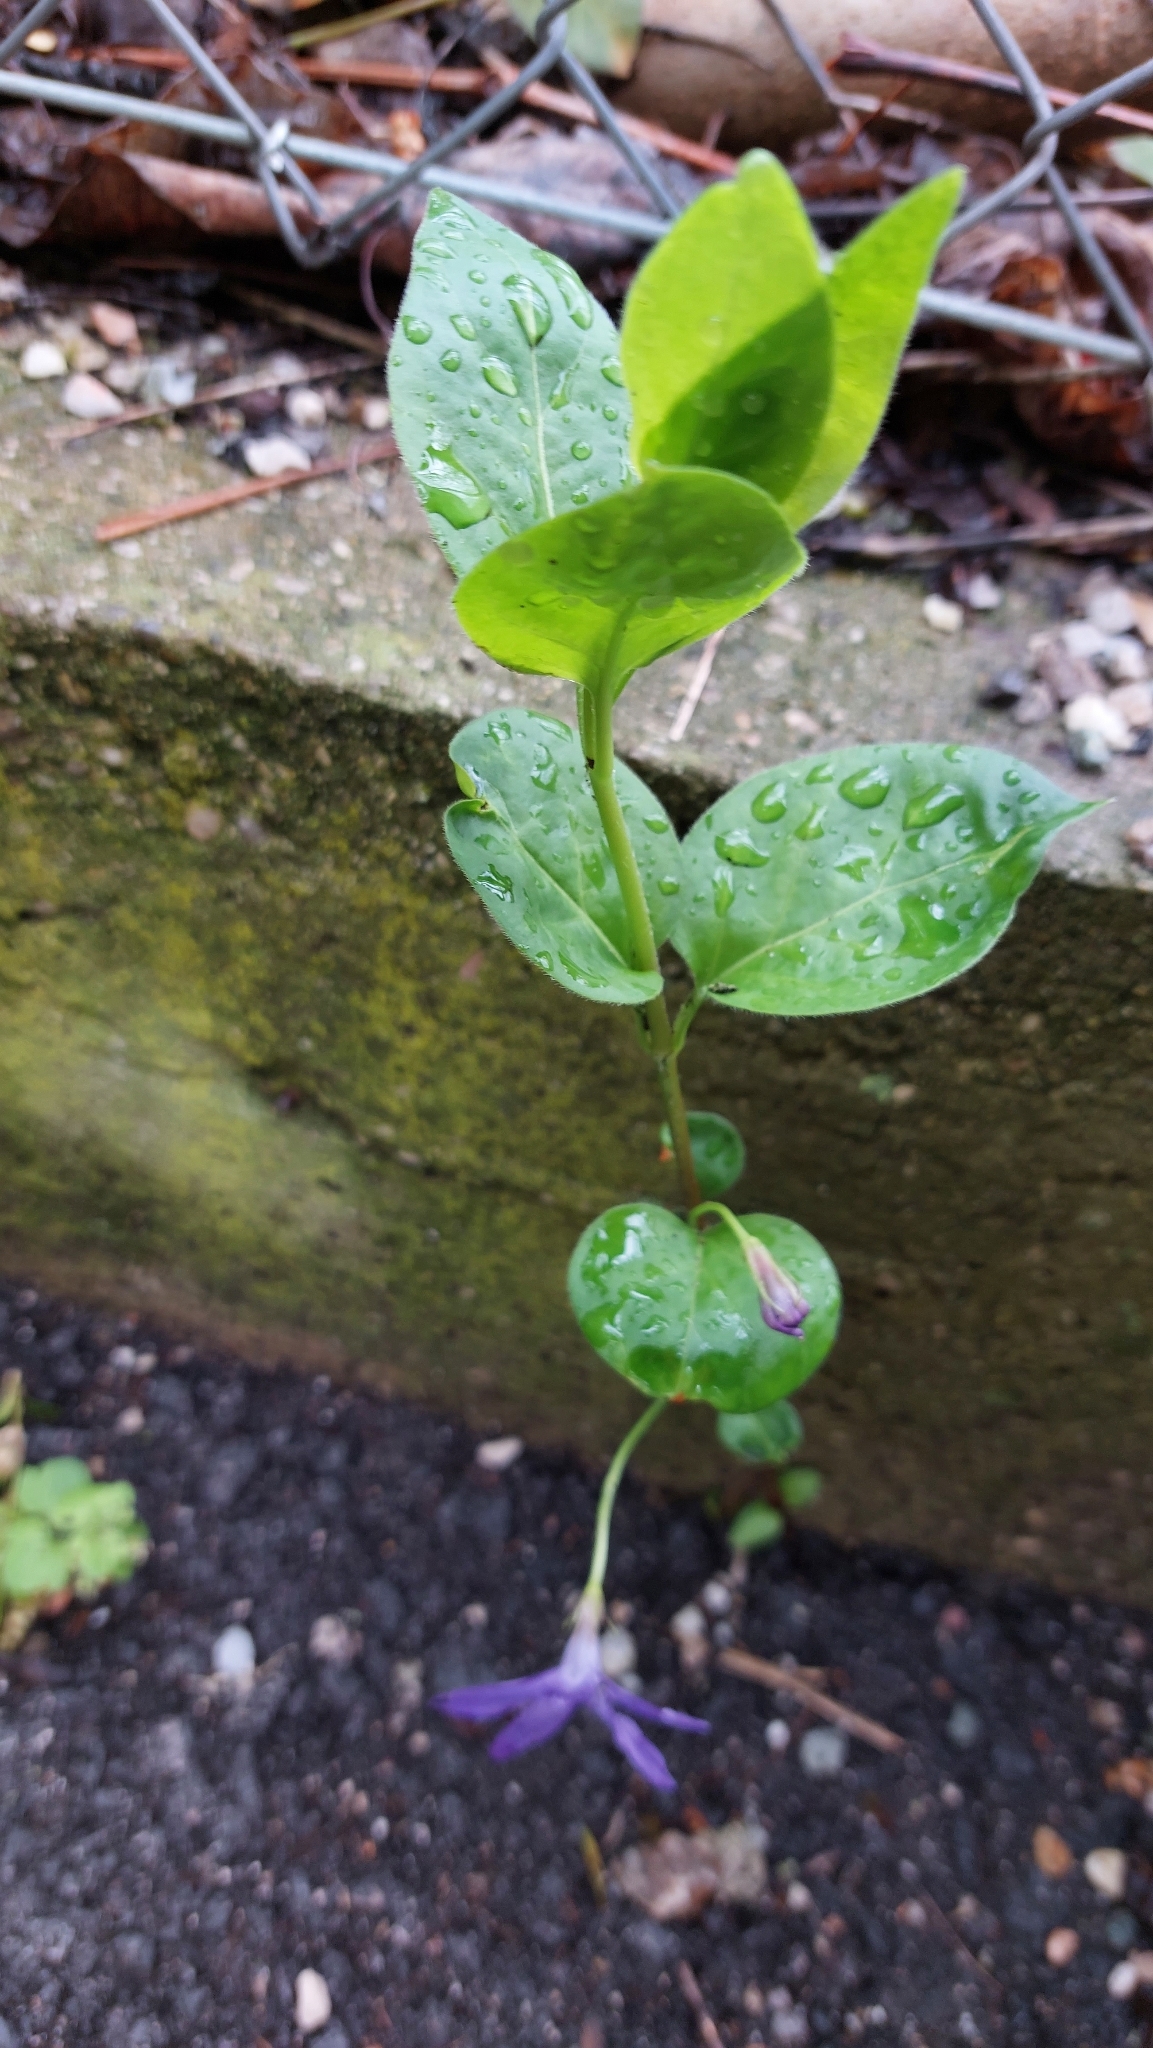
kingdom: Plantae
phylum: Tracheophyta
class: Magnoliopsida
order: Gentianales
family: Apocynaceae
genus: Vinca
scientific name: Vinca major
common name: Greater periwinkle
